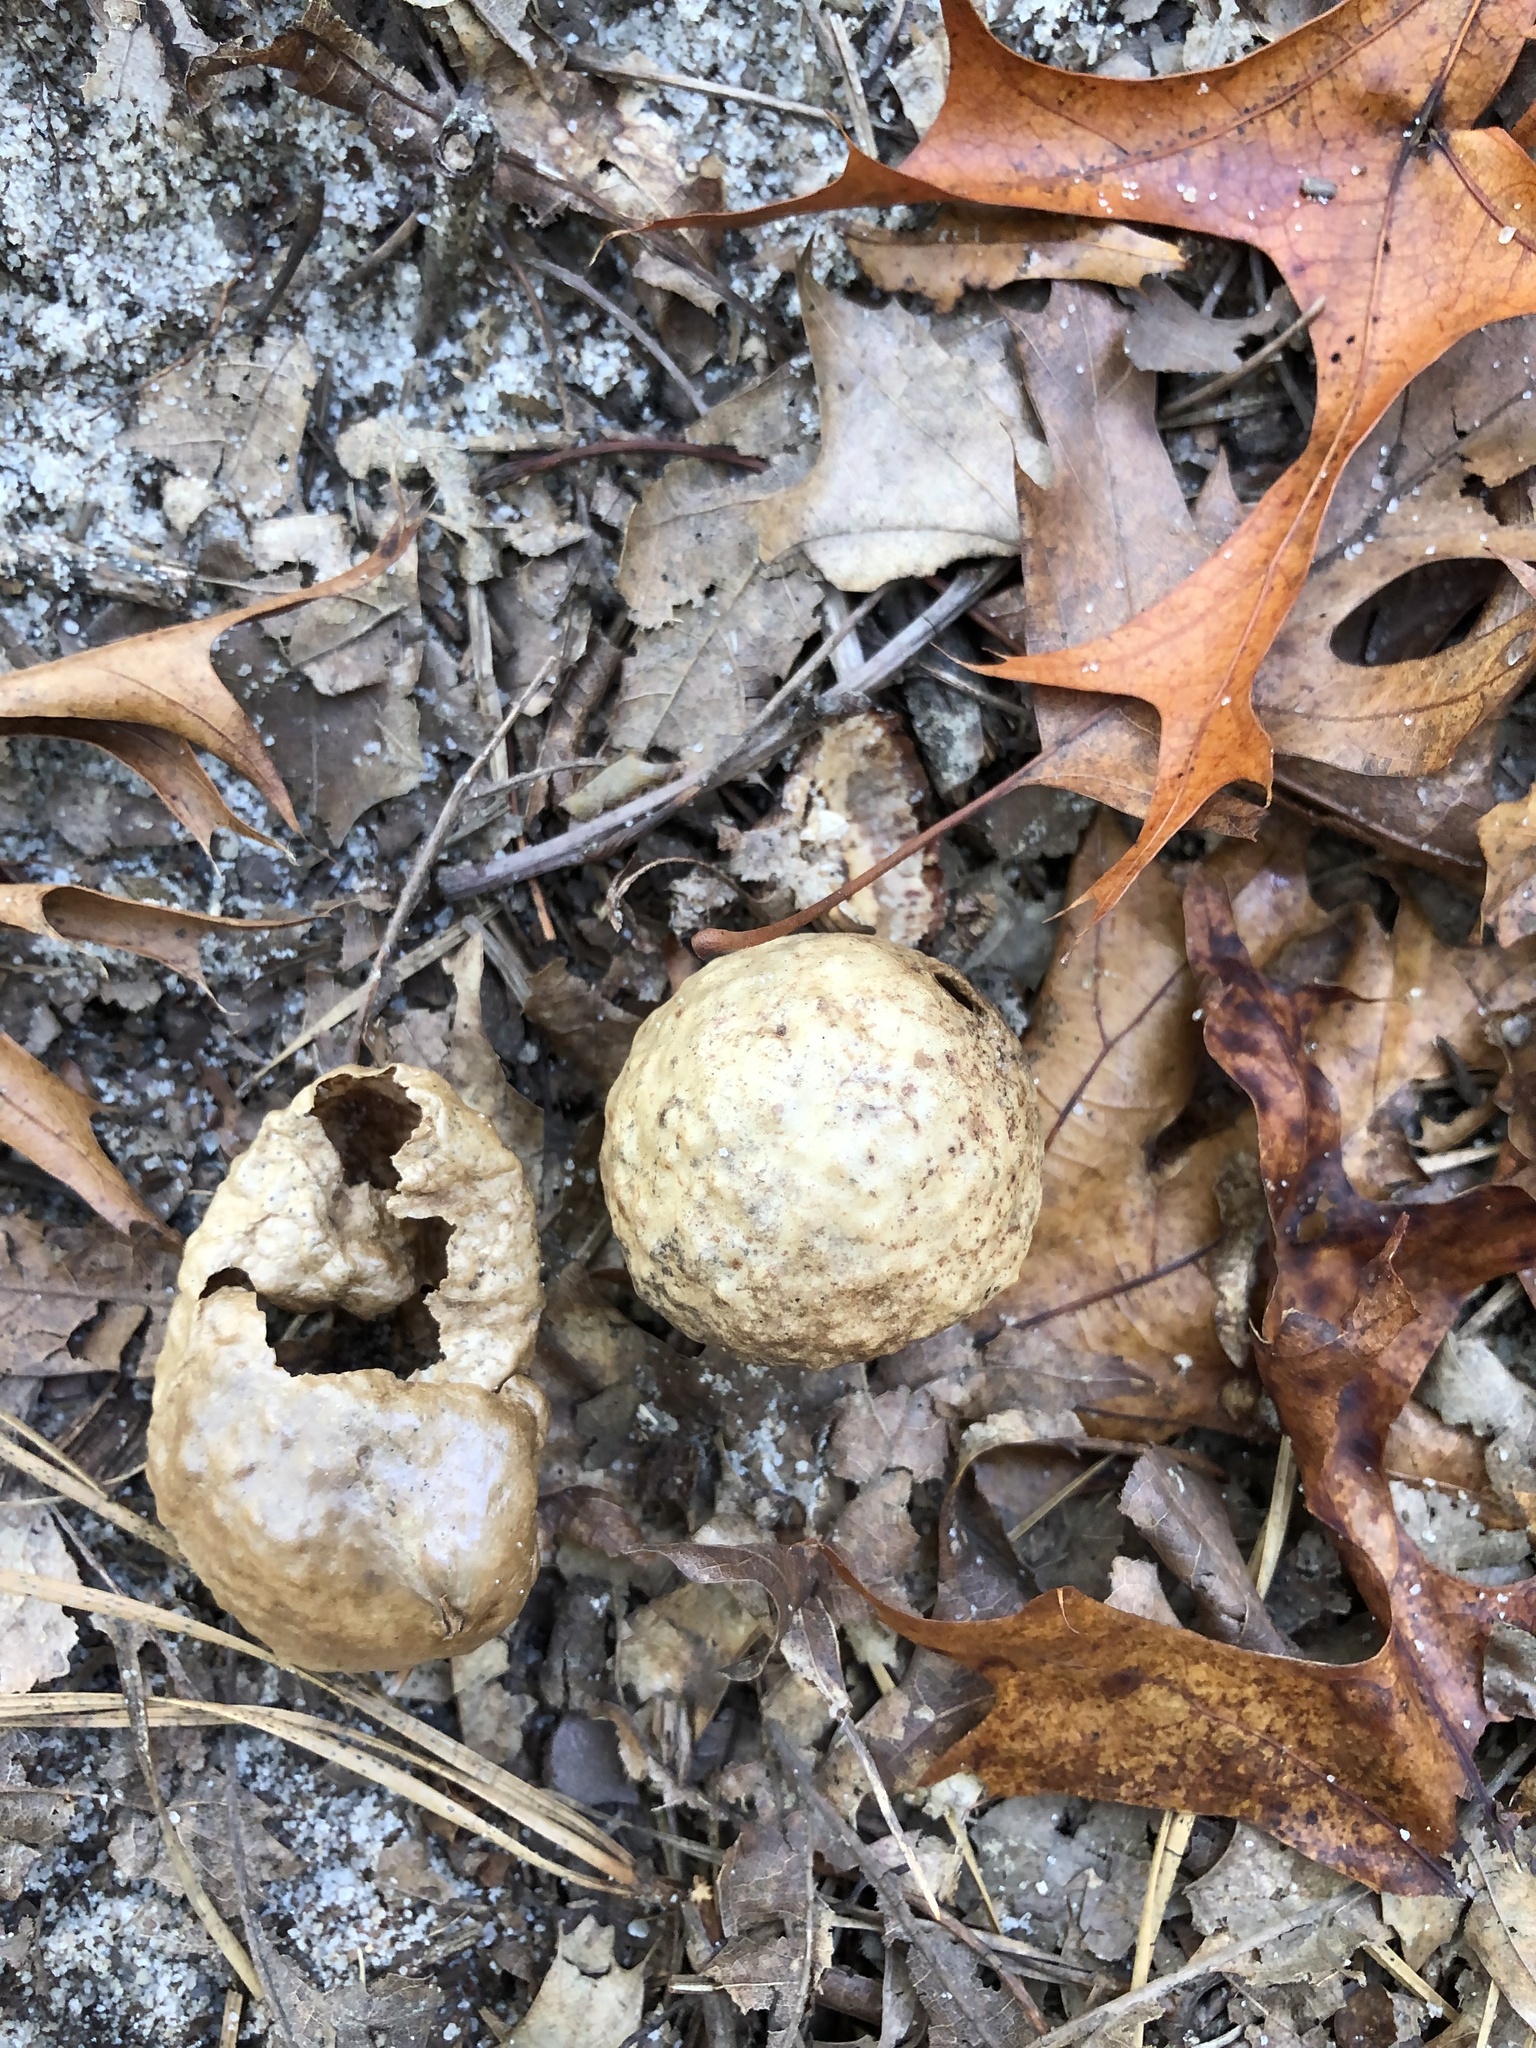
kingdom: Animalia
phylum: Arthropoda
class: Insecta
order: Hymenoptera
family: Cynipidae
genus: Amphibolips
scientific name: Amphibolips
